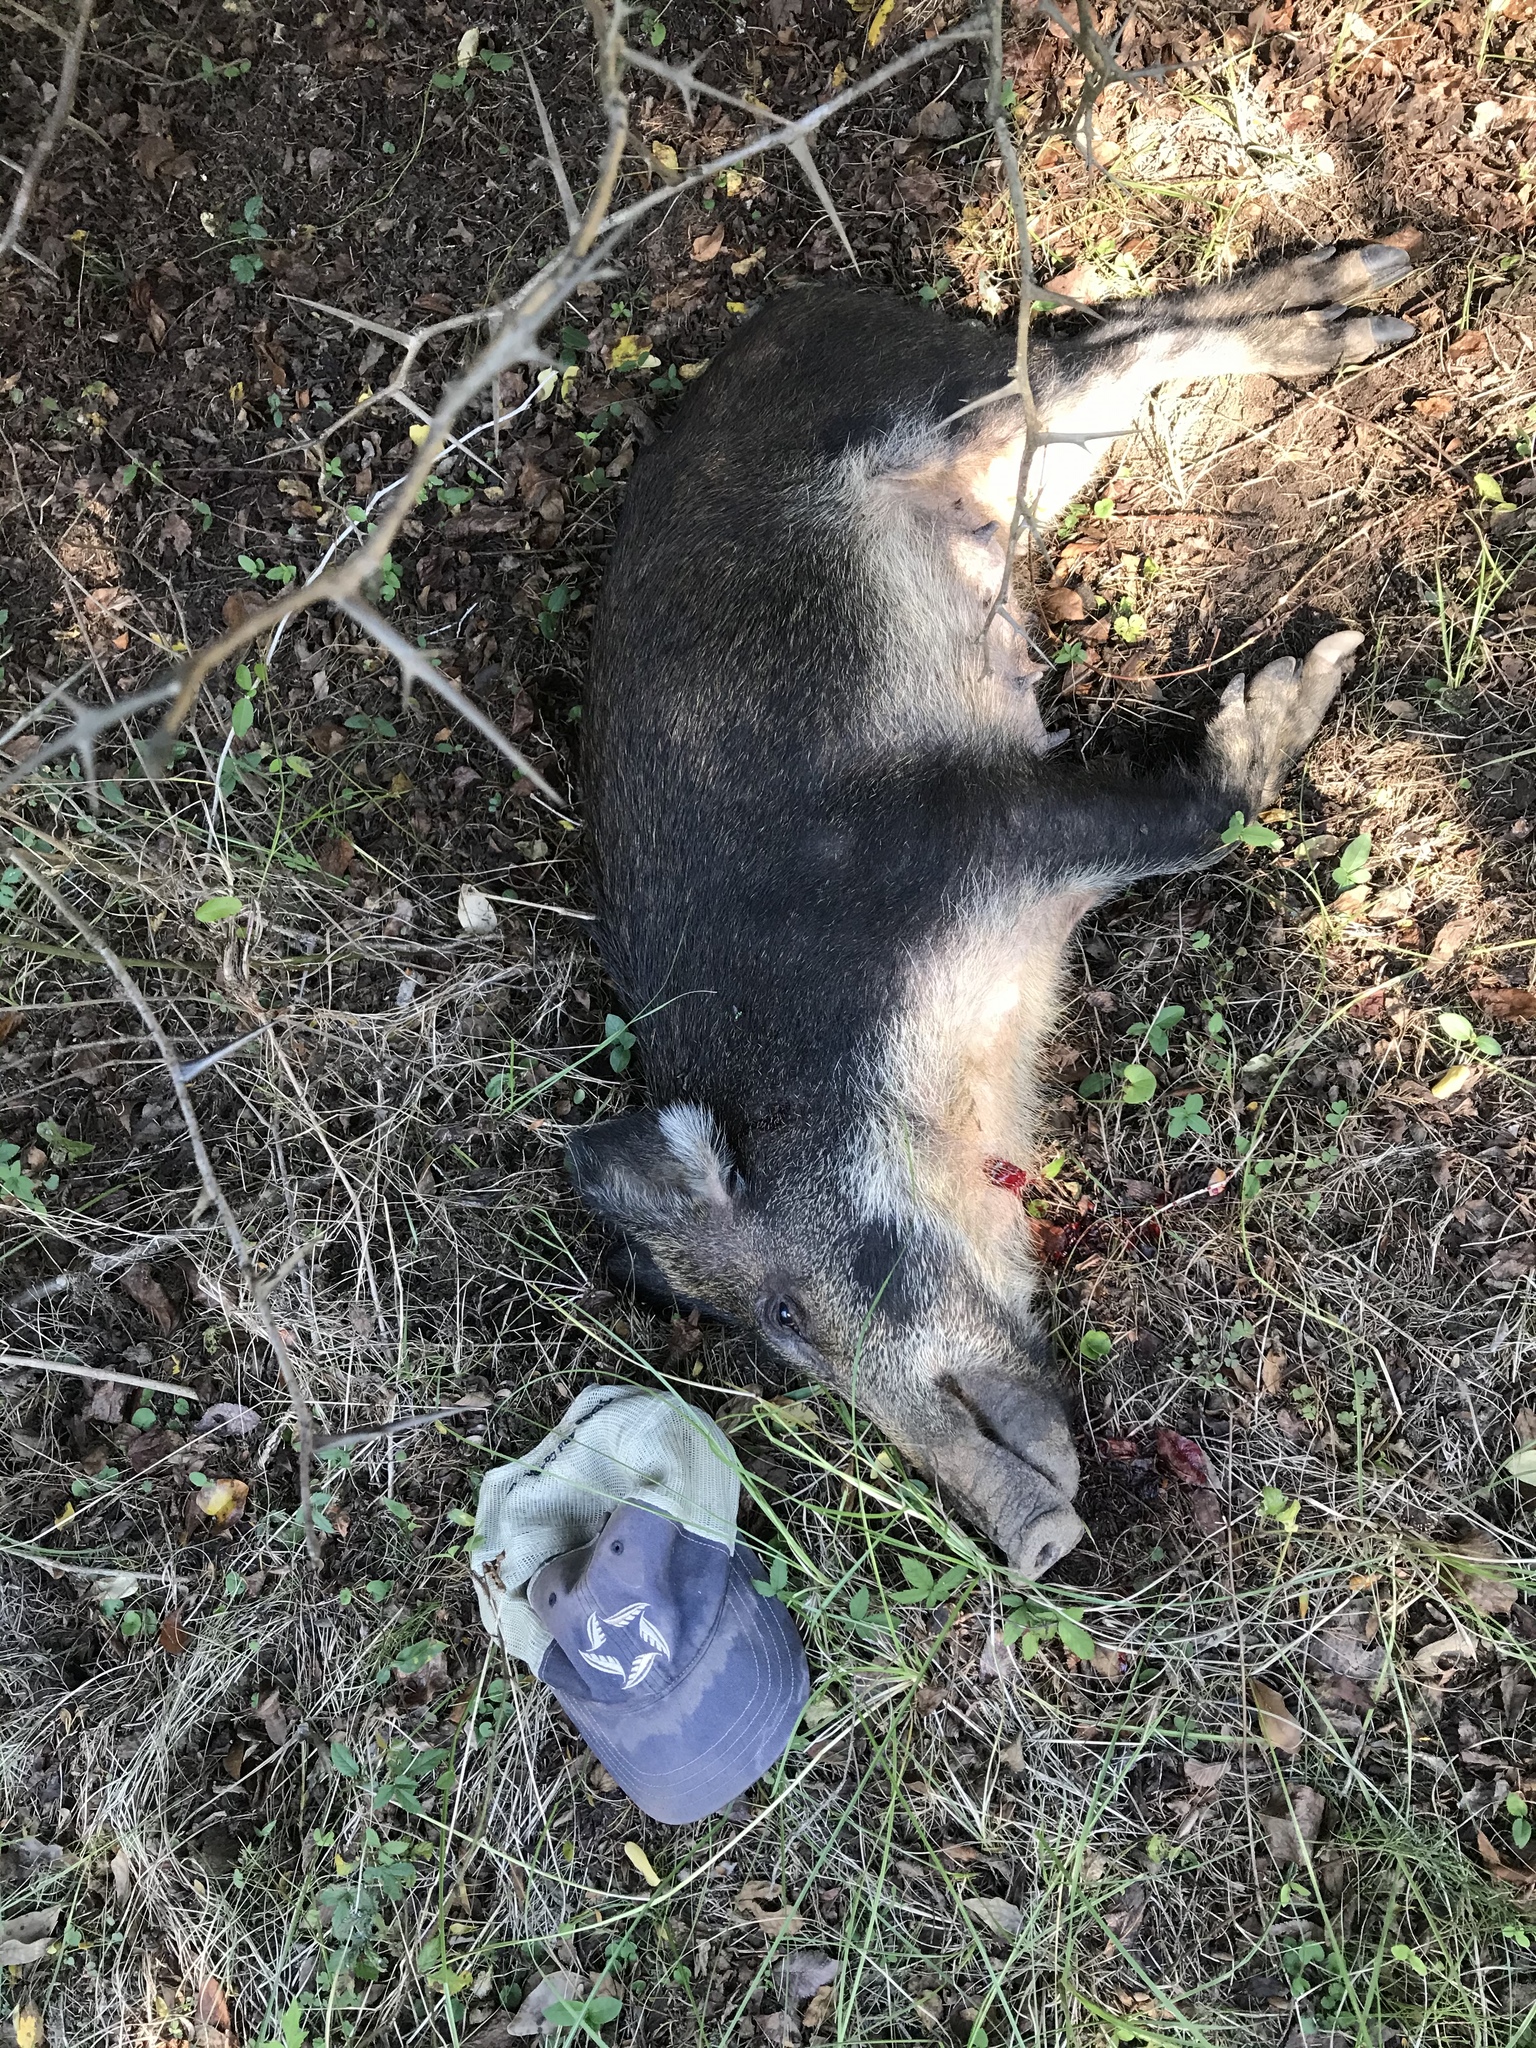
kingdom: Animalia
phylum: Chordata
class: Mammalia
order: Artiodactyla
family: Suidae
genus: Sus
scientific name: Sus scrofa
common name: Wild boar
